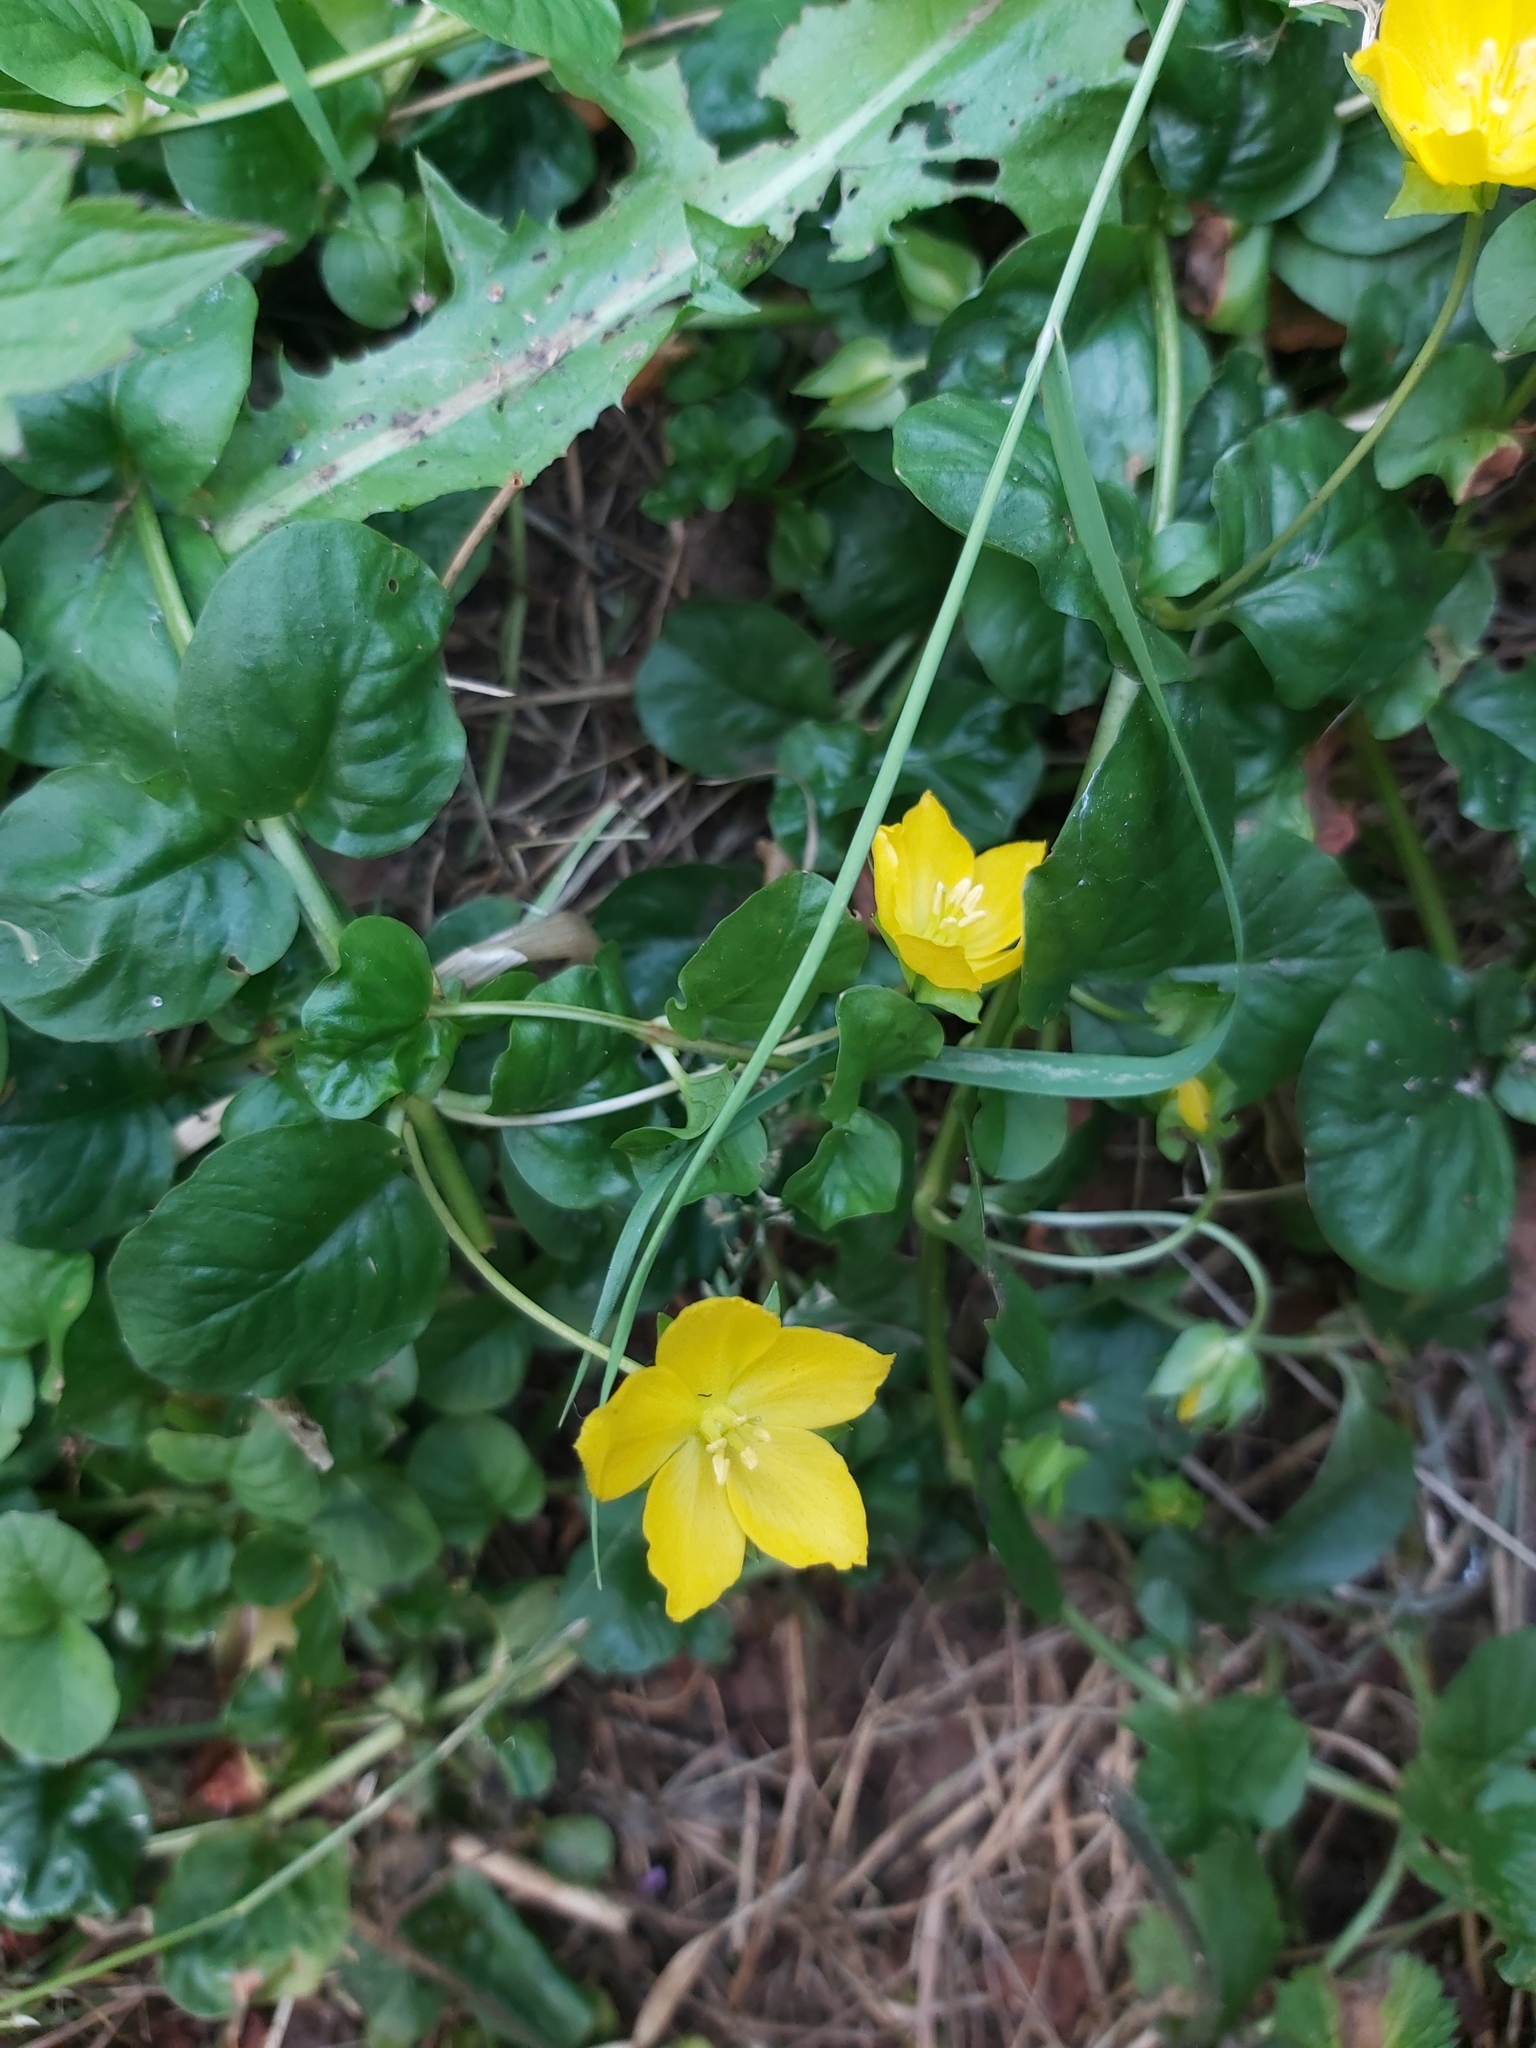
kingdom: Plantae
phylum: Tracheophyta
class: Magnoliopsida
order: Ericales
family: Primulaceae
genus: Lysimachia
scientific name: Lysimachia nummularia
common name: Moneywort
